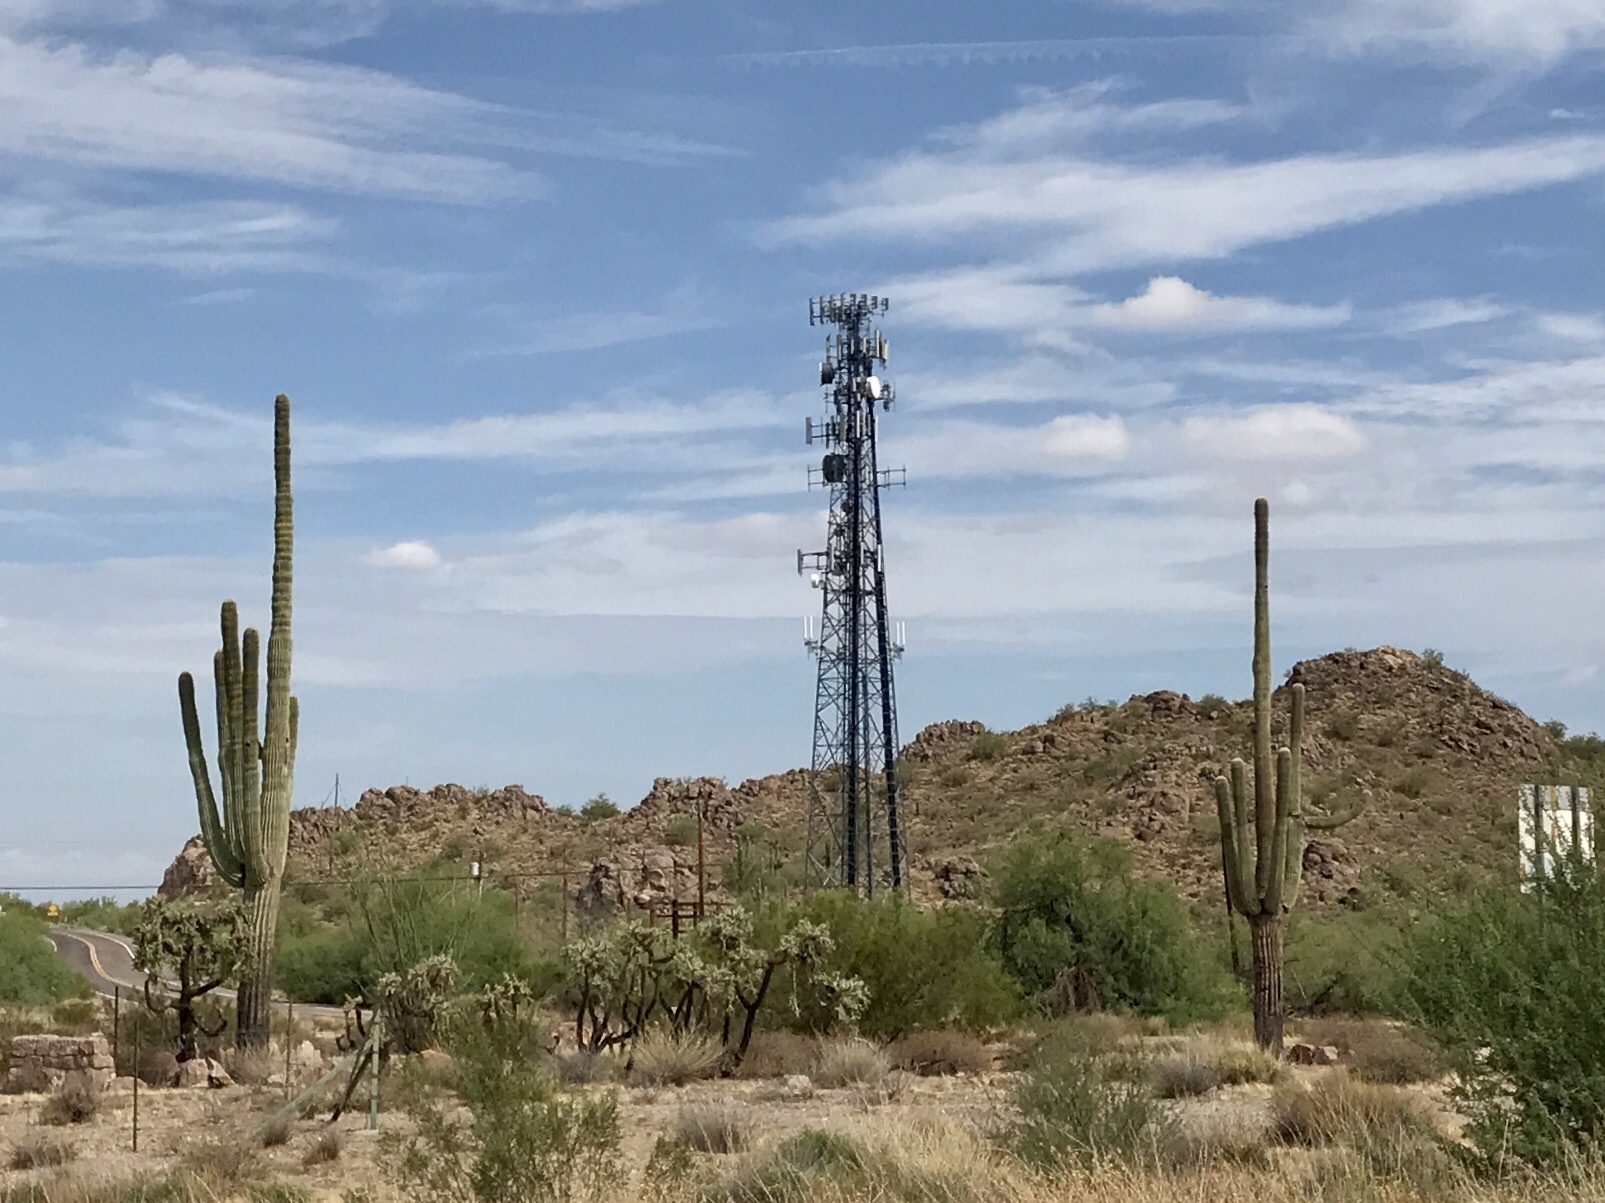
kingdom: Plantae
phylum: Tracheophyta
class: Magnoliopsida
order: Caryophyllales
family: Cactaceae
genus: Carnegiea
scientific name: Carnegiea gigantea
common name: Saguaro
